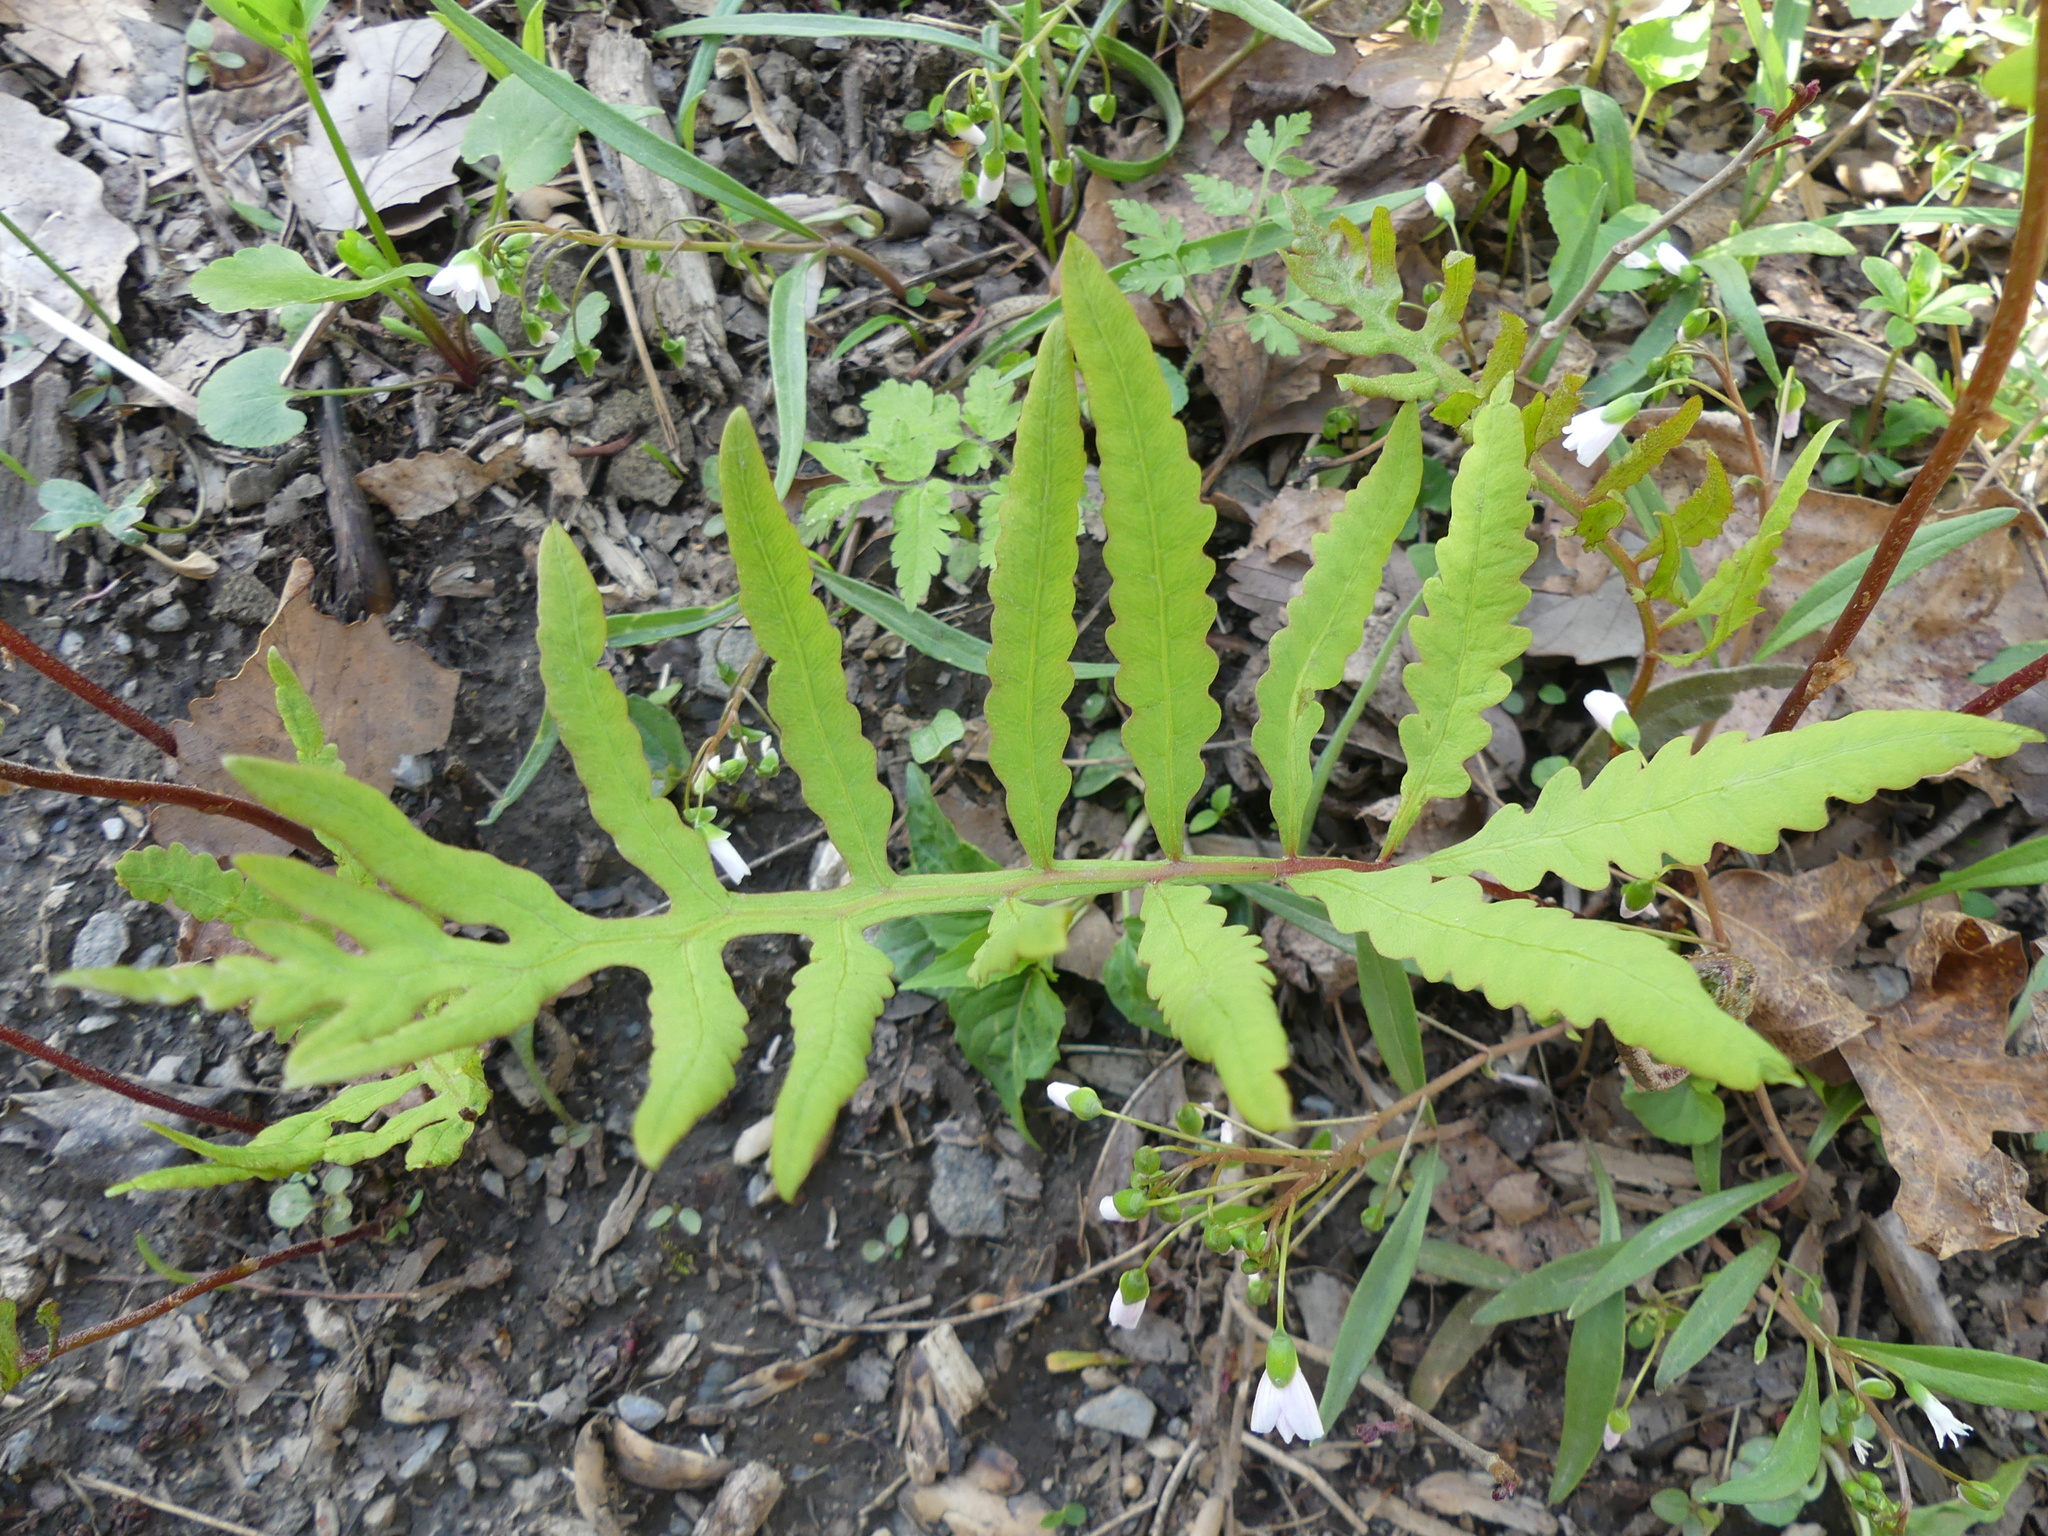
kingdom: Plantae
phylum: Tracheophyta
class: Polypodiopsida
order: Polypodiales
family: Onocleaceae
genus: Onoclea
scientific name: Onoclea sensibilis
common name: Sensitive fern
